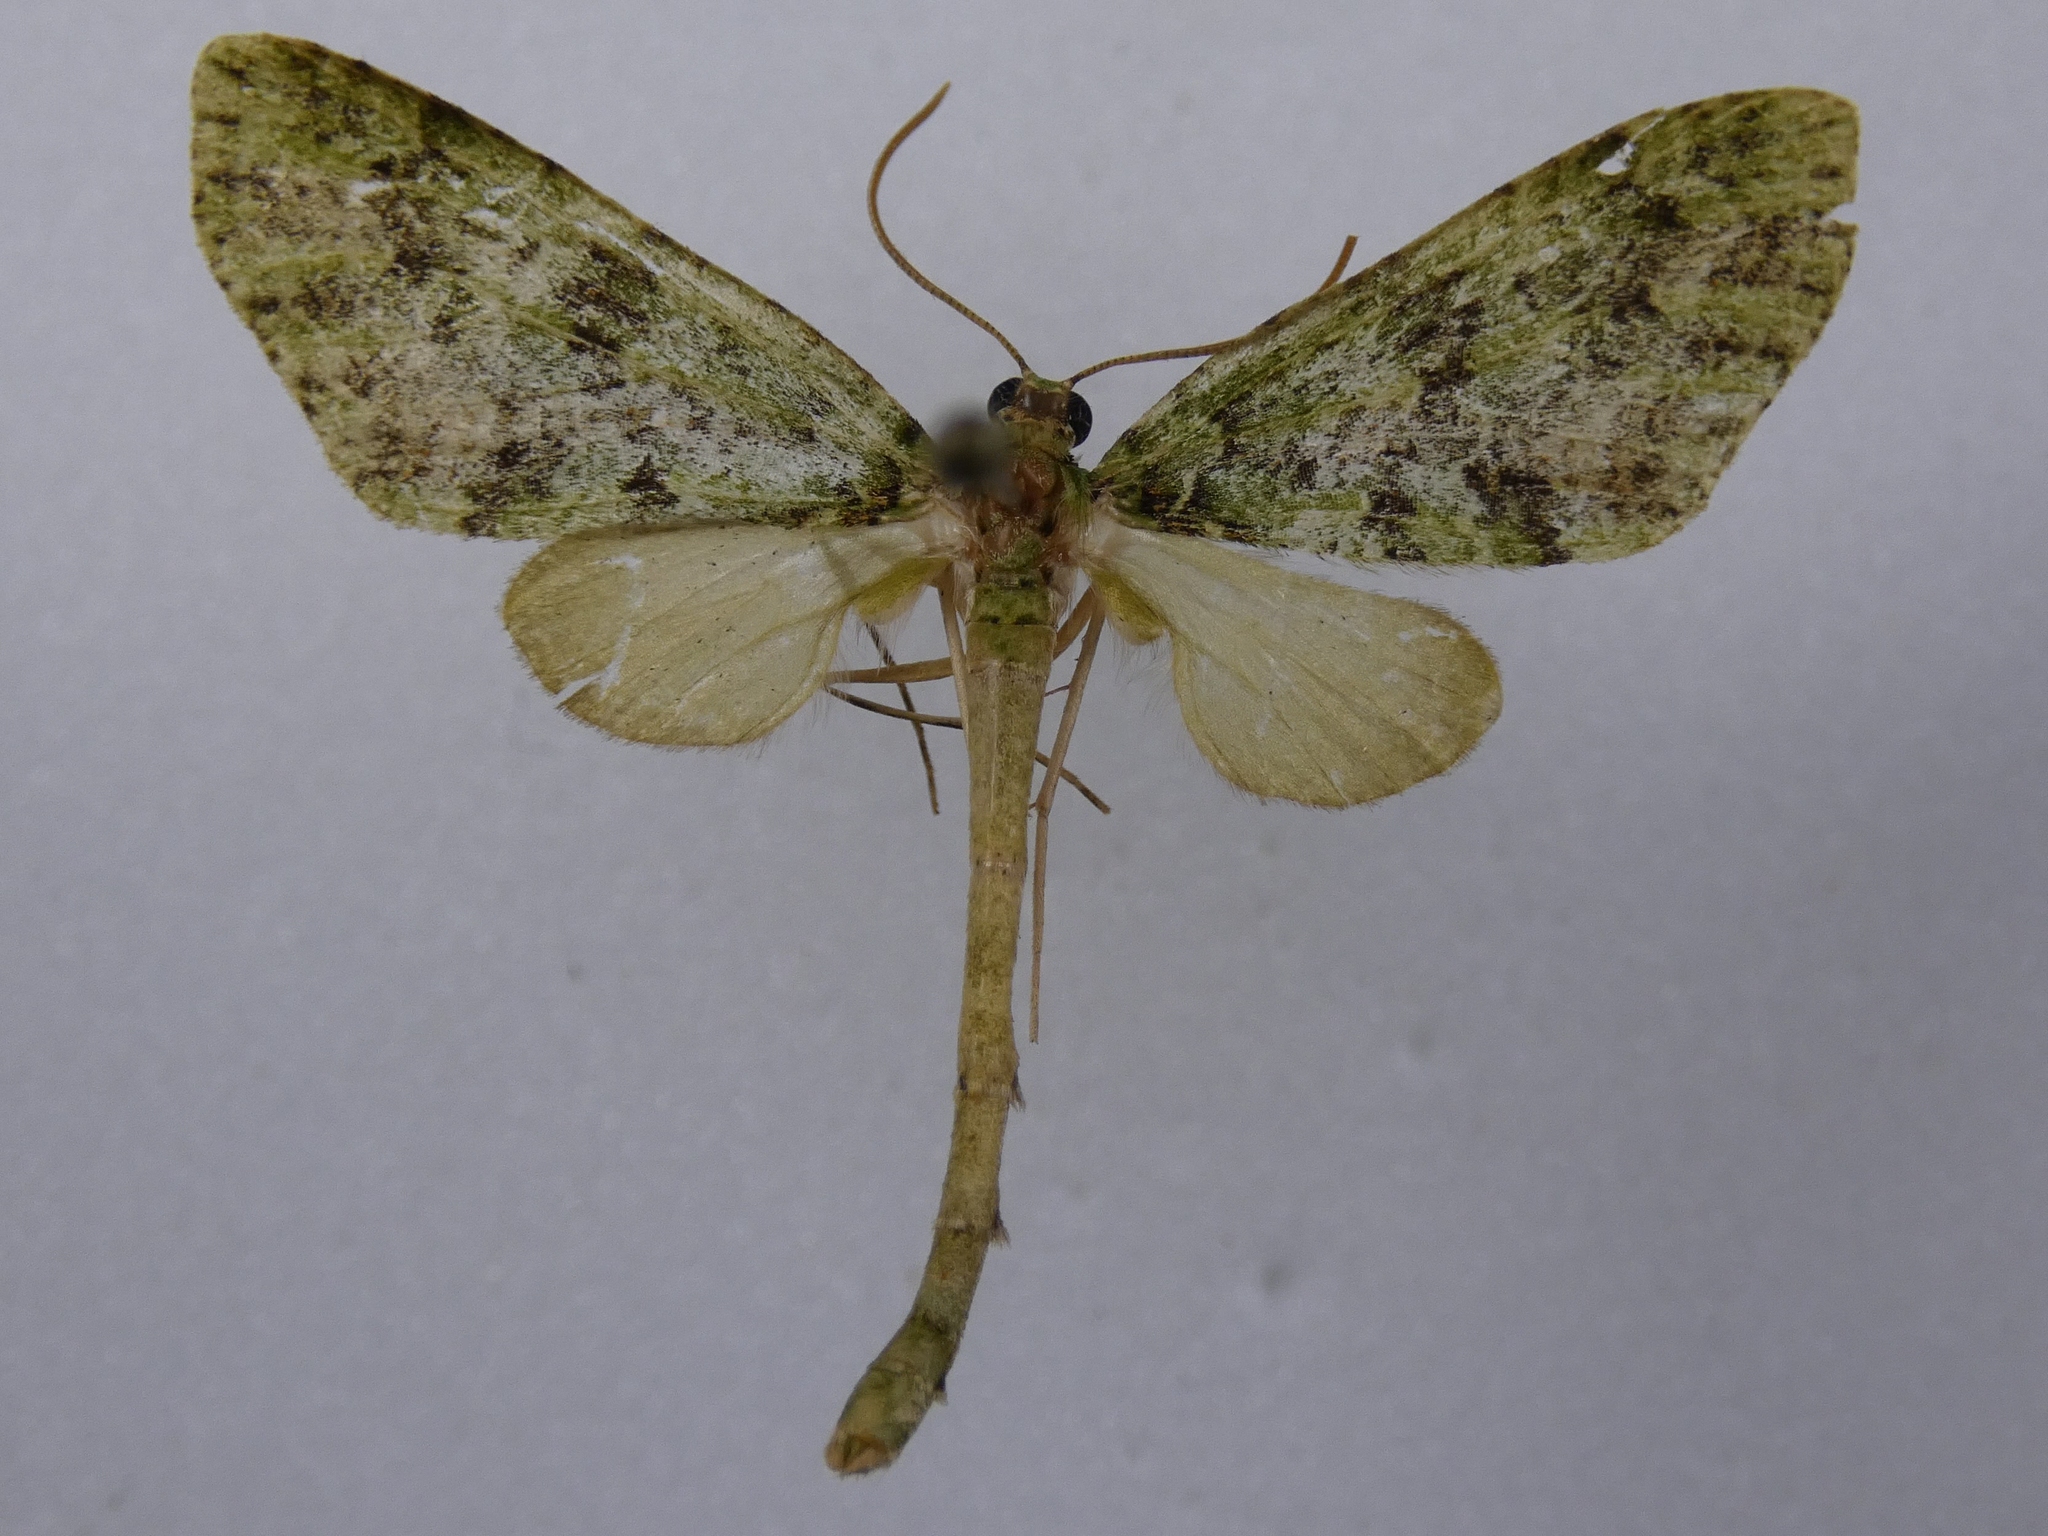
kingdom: Animalia
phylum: Arthropoda
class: Insecta
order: Lepidoptera
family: Geometridae
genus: Tatosoma
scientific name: Tatosoma tipulata
